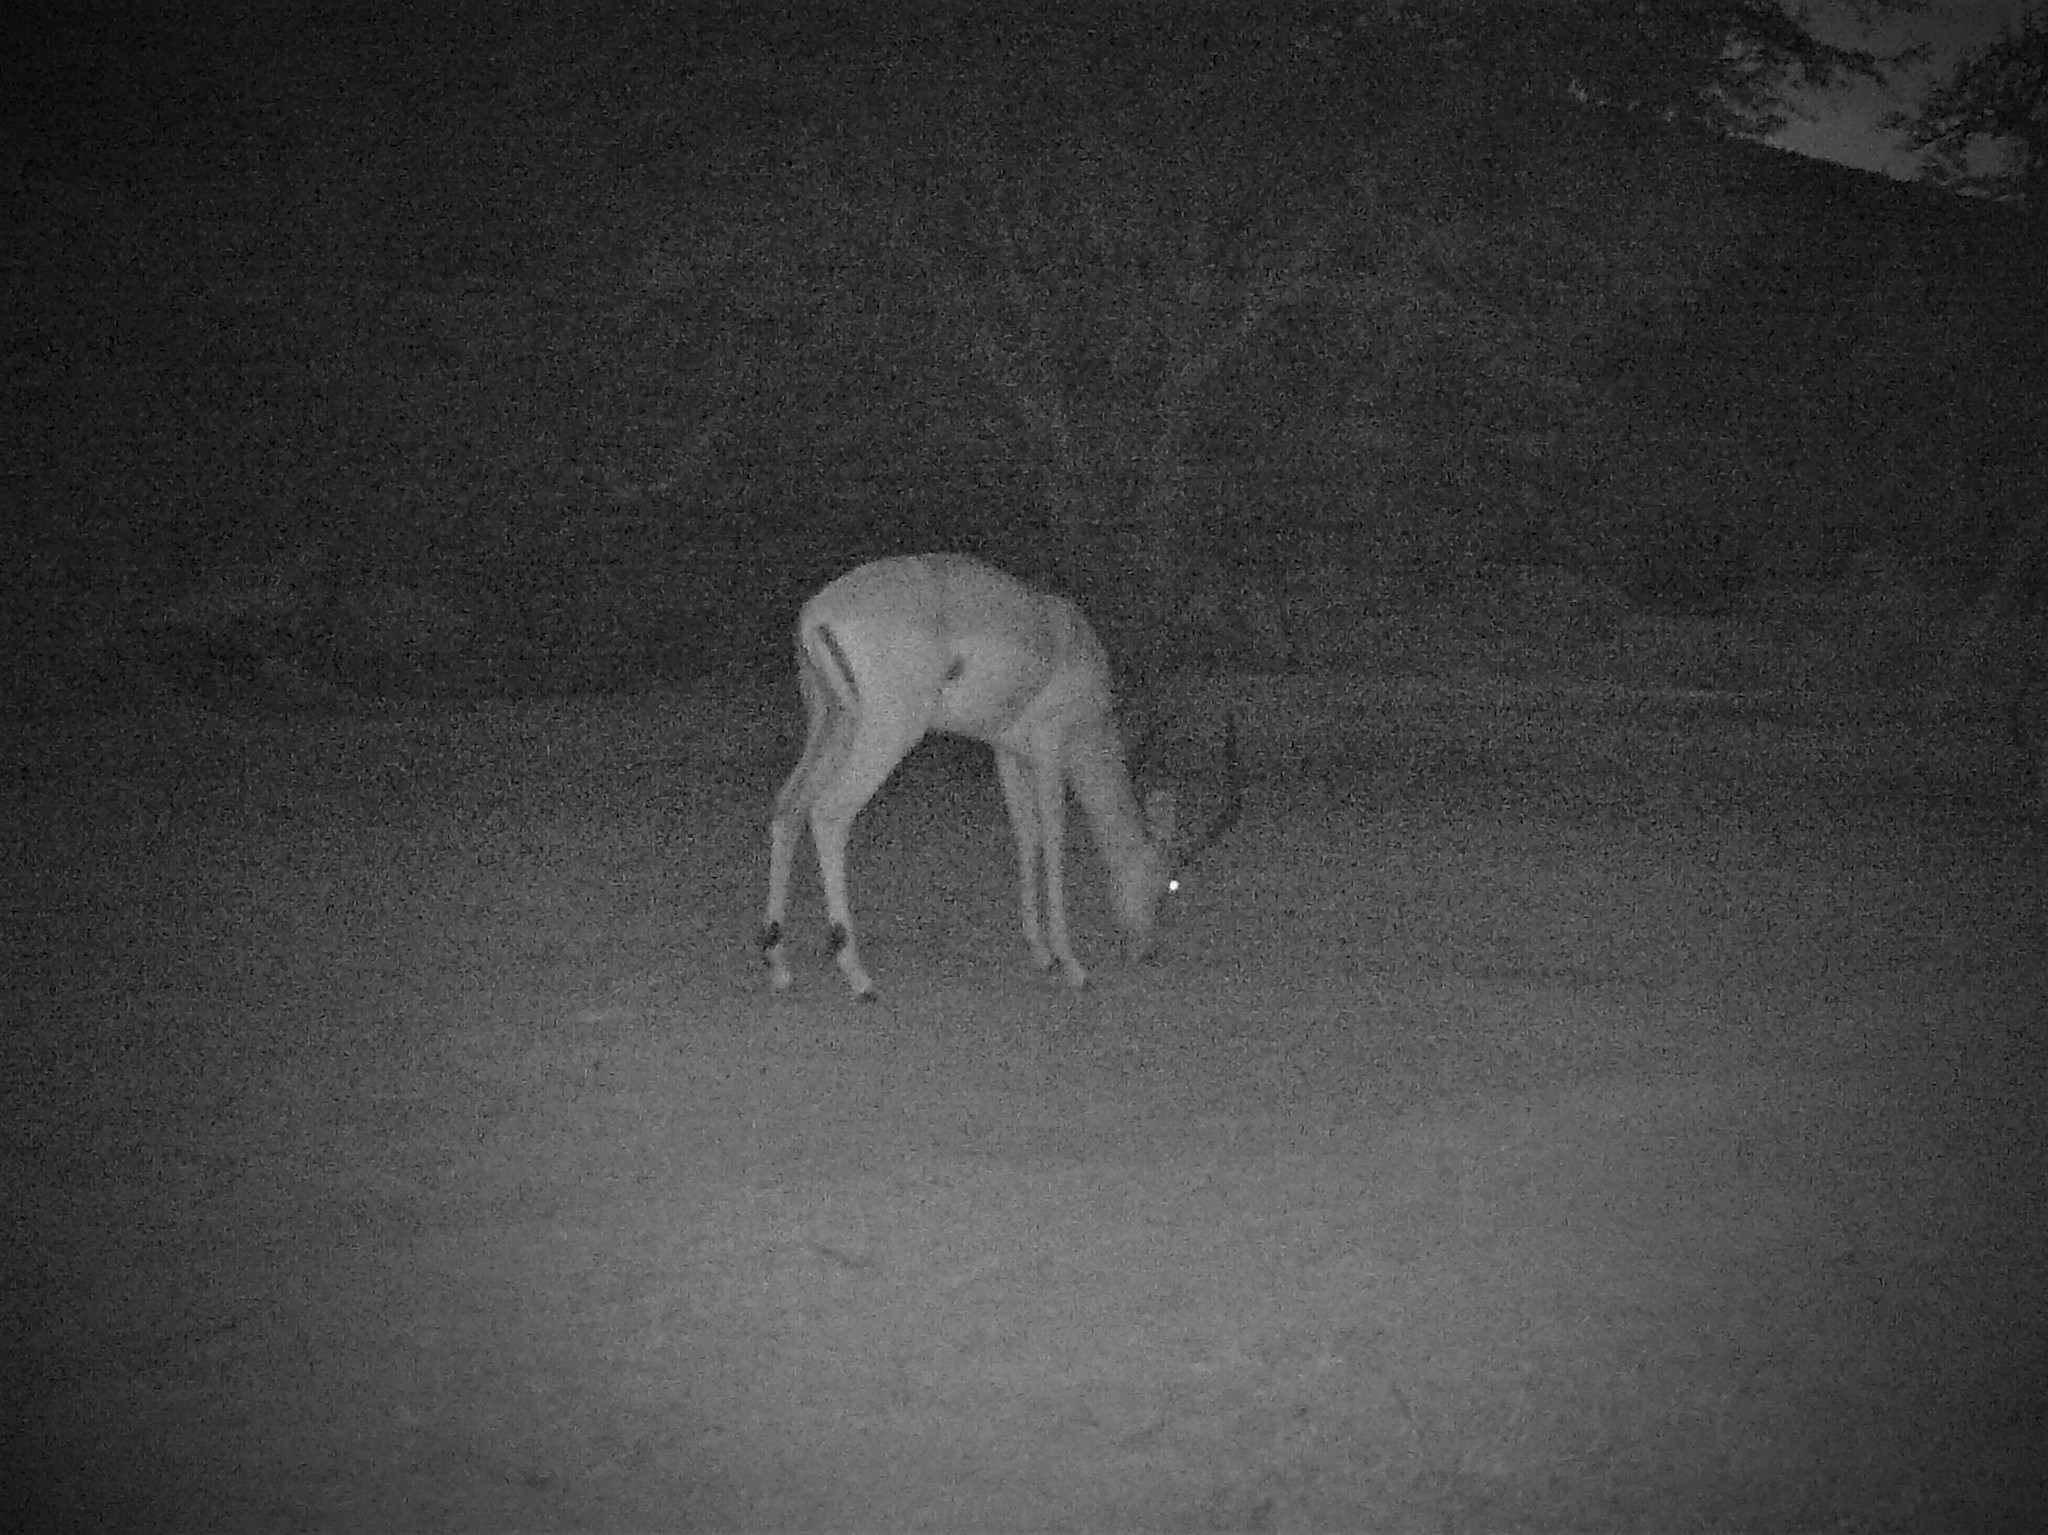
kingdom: Animalia
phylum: Chordata
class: Mammalia
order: Artiodactyla
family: Bovidae
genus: Aepyceros
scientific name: Aepyceros melampus
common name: Impala
